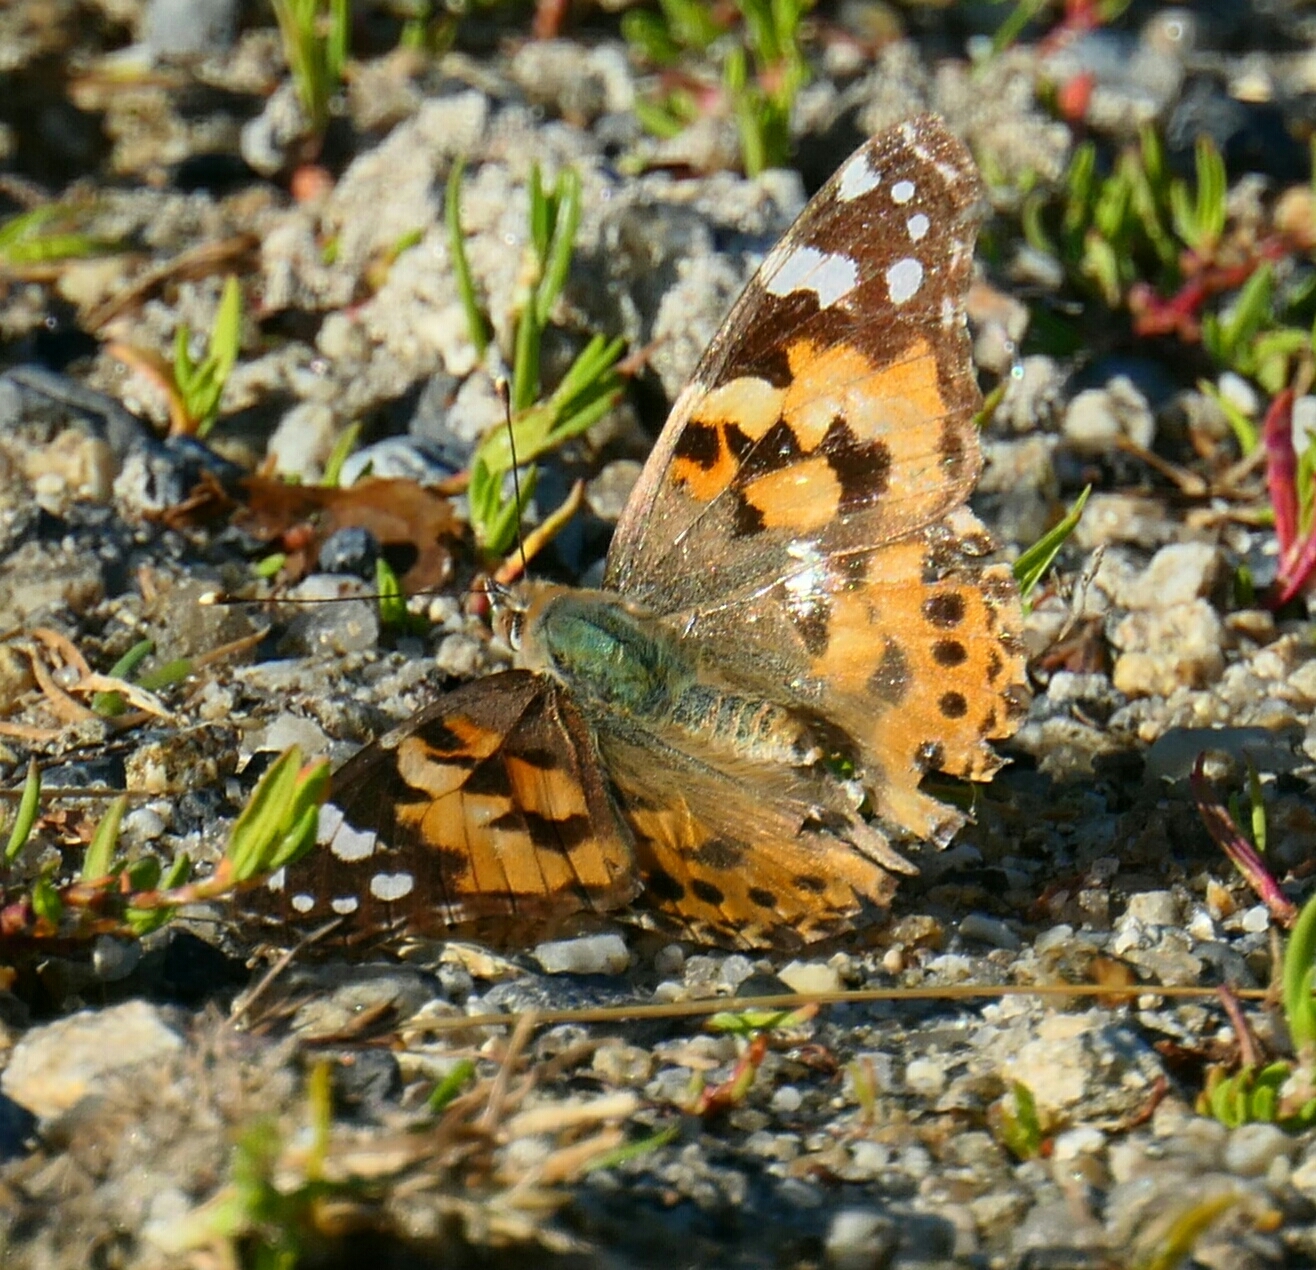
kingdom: Animalia
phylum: Arthropoda
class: Insecta
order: Lepidoptera
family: Nymphalidae
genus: Vanessa
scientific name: Vanessa cardui
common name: Painted lady
